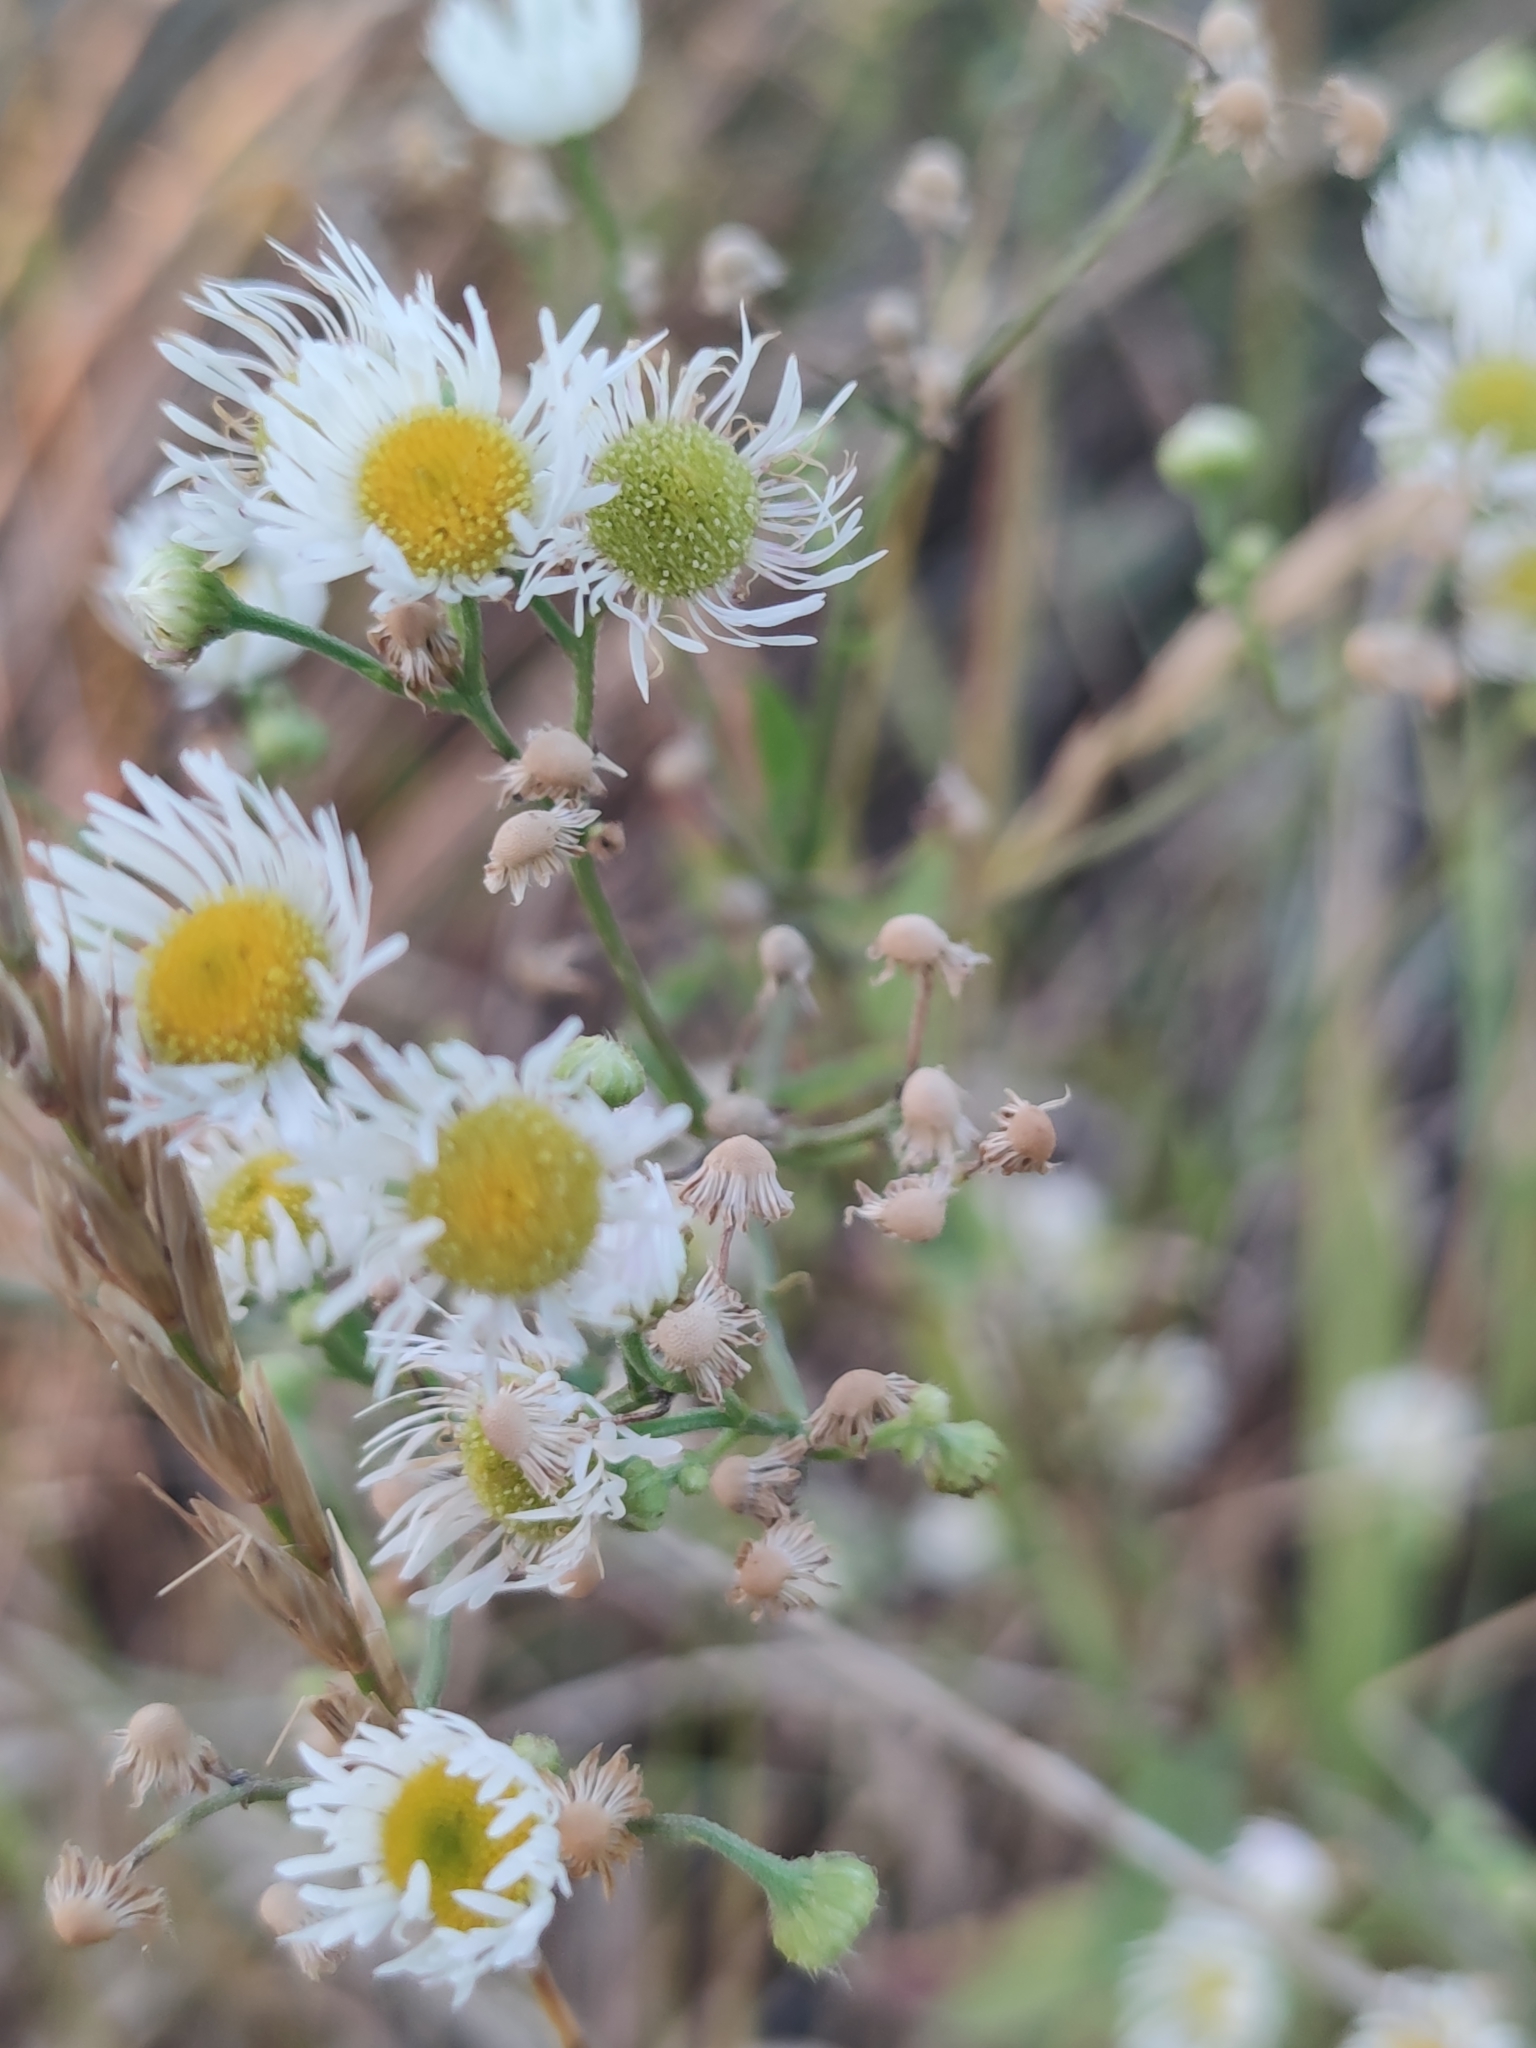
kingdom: Plantae
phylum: Tracheophyta
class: Magnoliopsida
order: Asterales
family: Asteraceae
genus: Erigeron
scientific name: Erigeron annuus
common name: Tall fleabane
